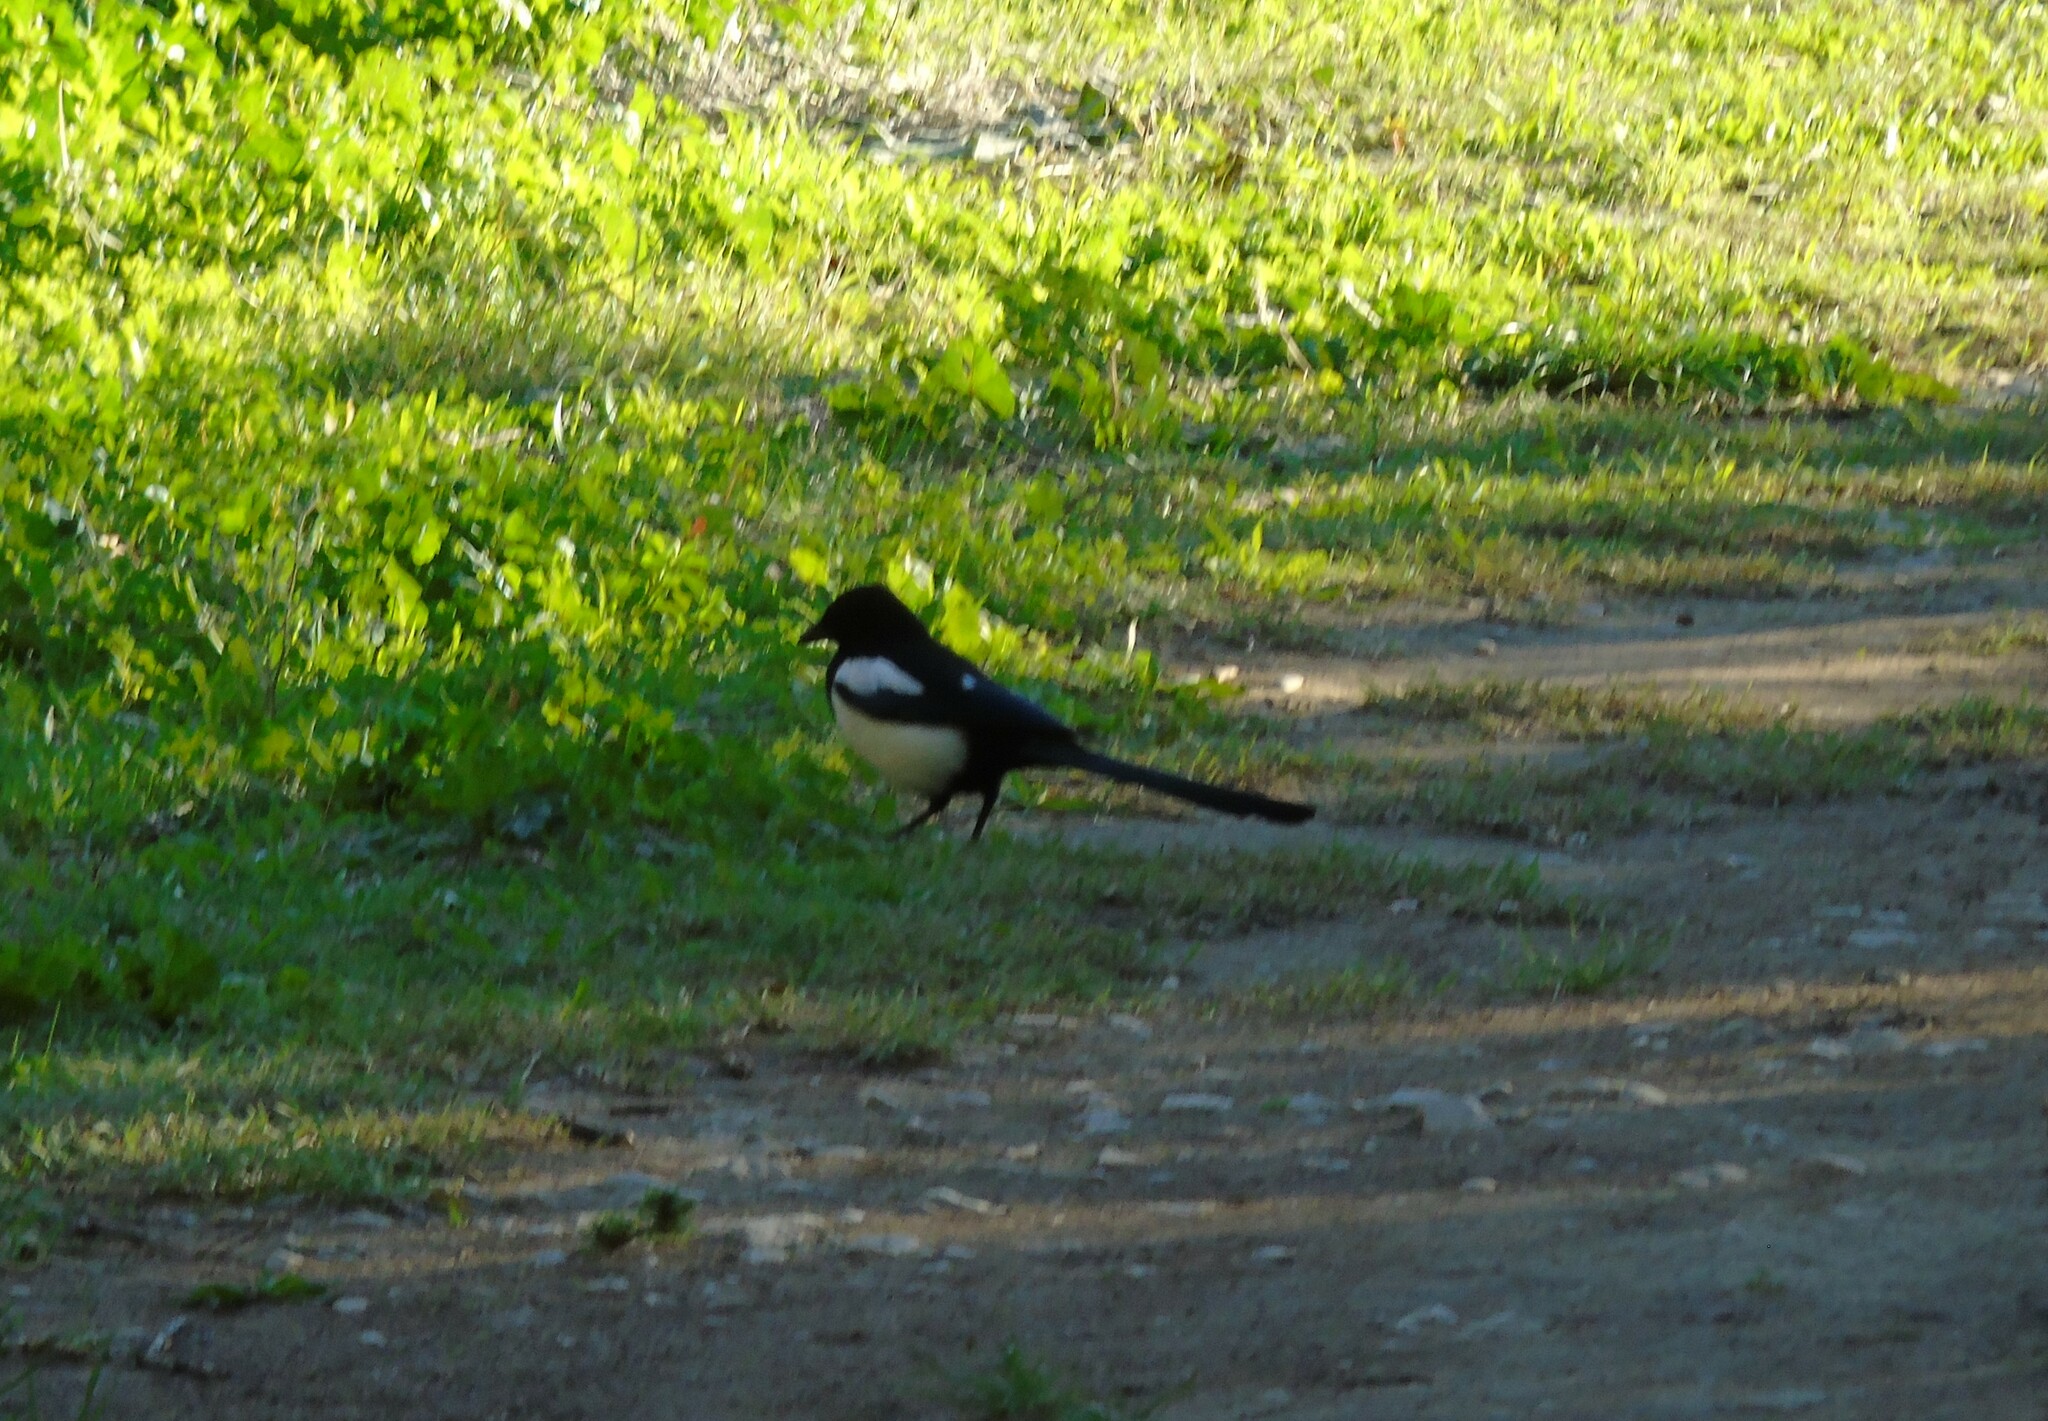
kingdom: Animalia
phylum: Chordata
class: Aves
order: Passeriformes
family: Corvidae
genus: Pica
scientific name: Pica pica
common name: Eurasian magpie
